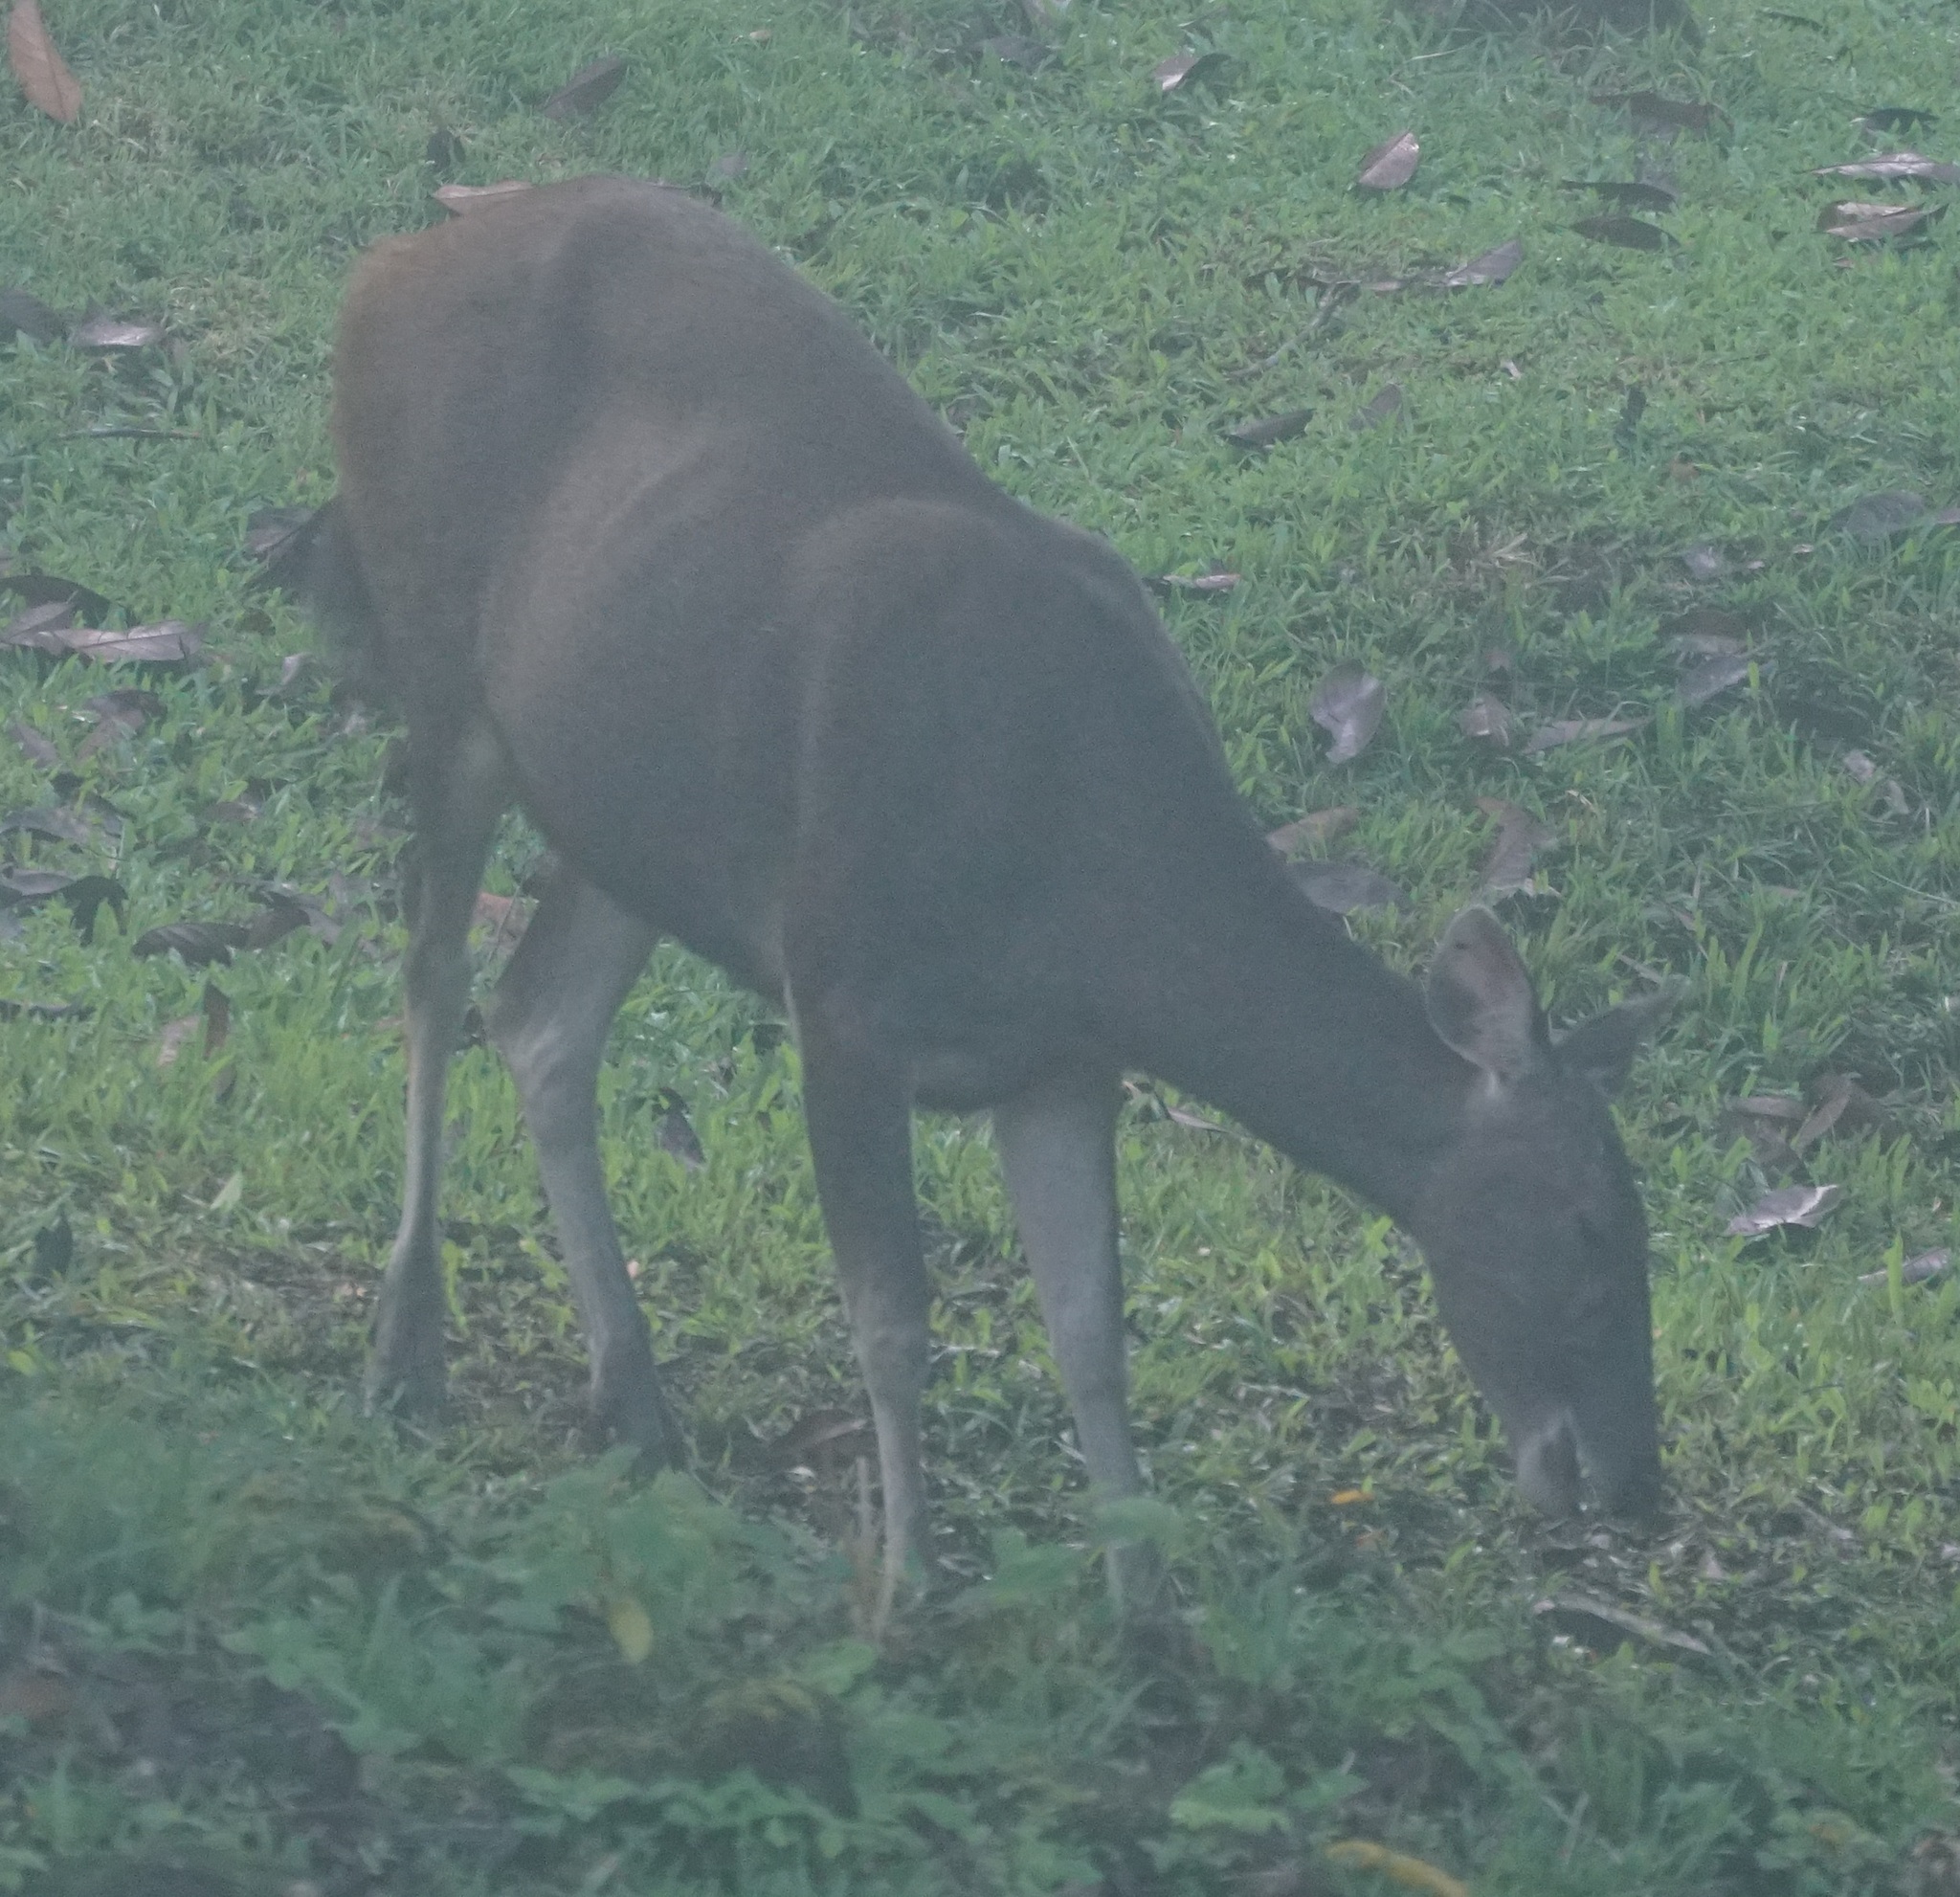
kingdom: Animalia
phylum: Chordata
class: Mammalia
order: Artiodactyla
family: Cervidae
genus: Rusa
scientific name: Rusa unicolor
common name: Sambar
